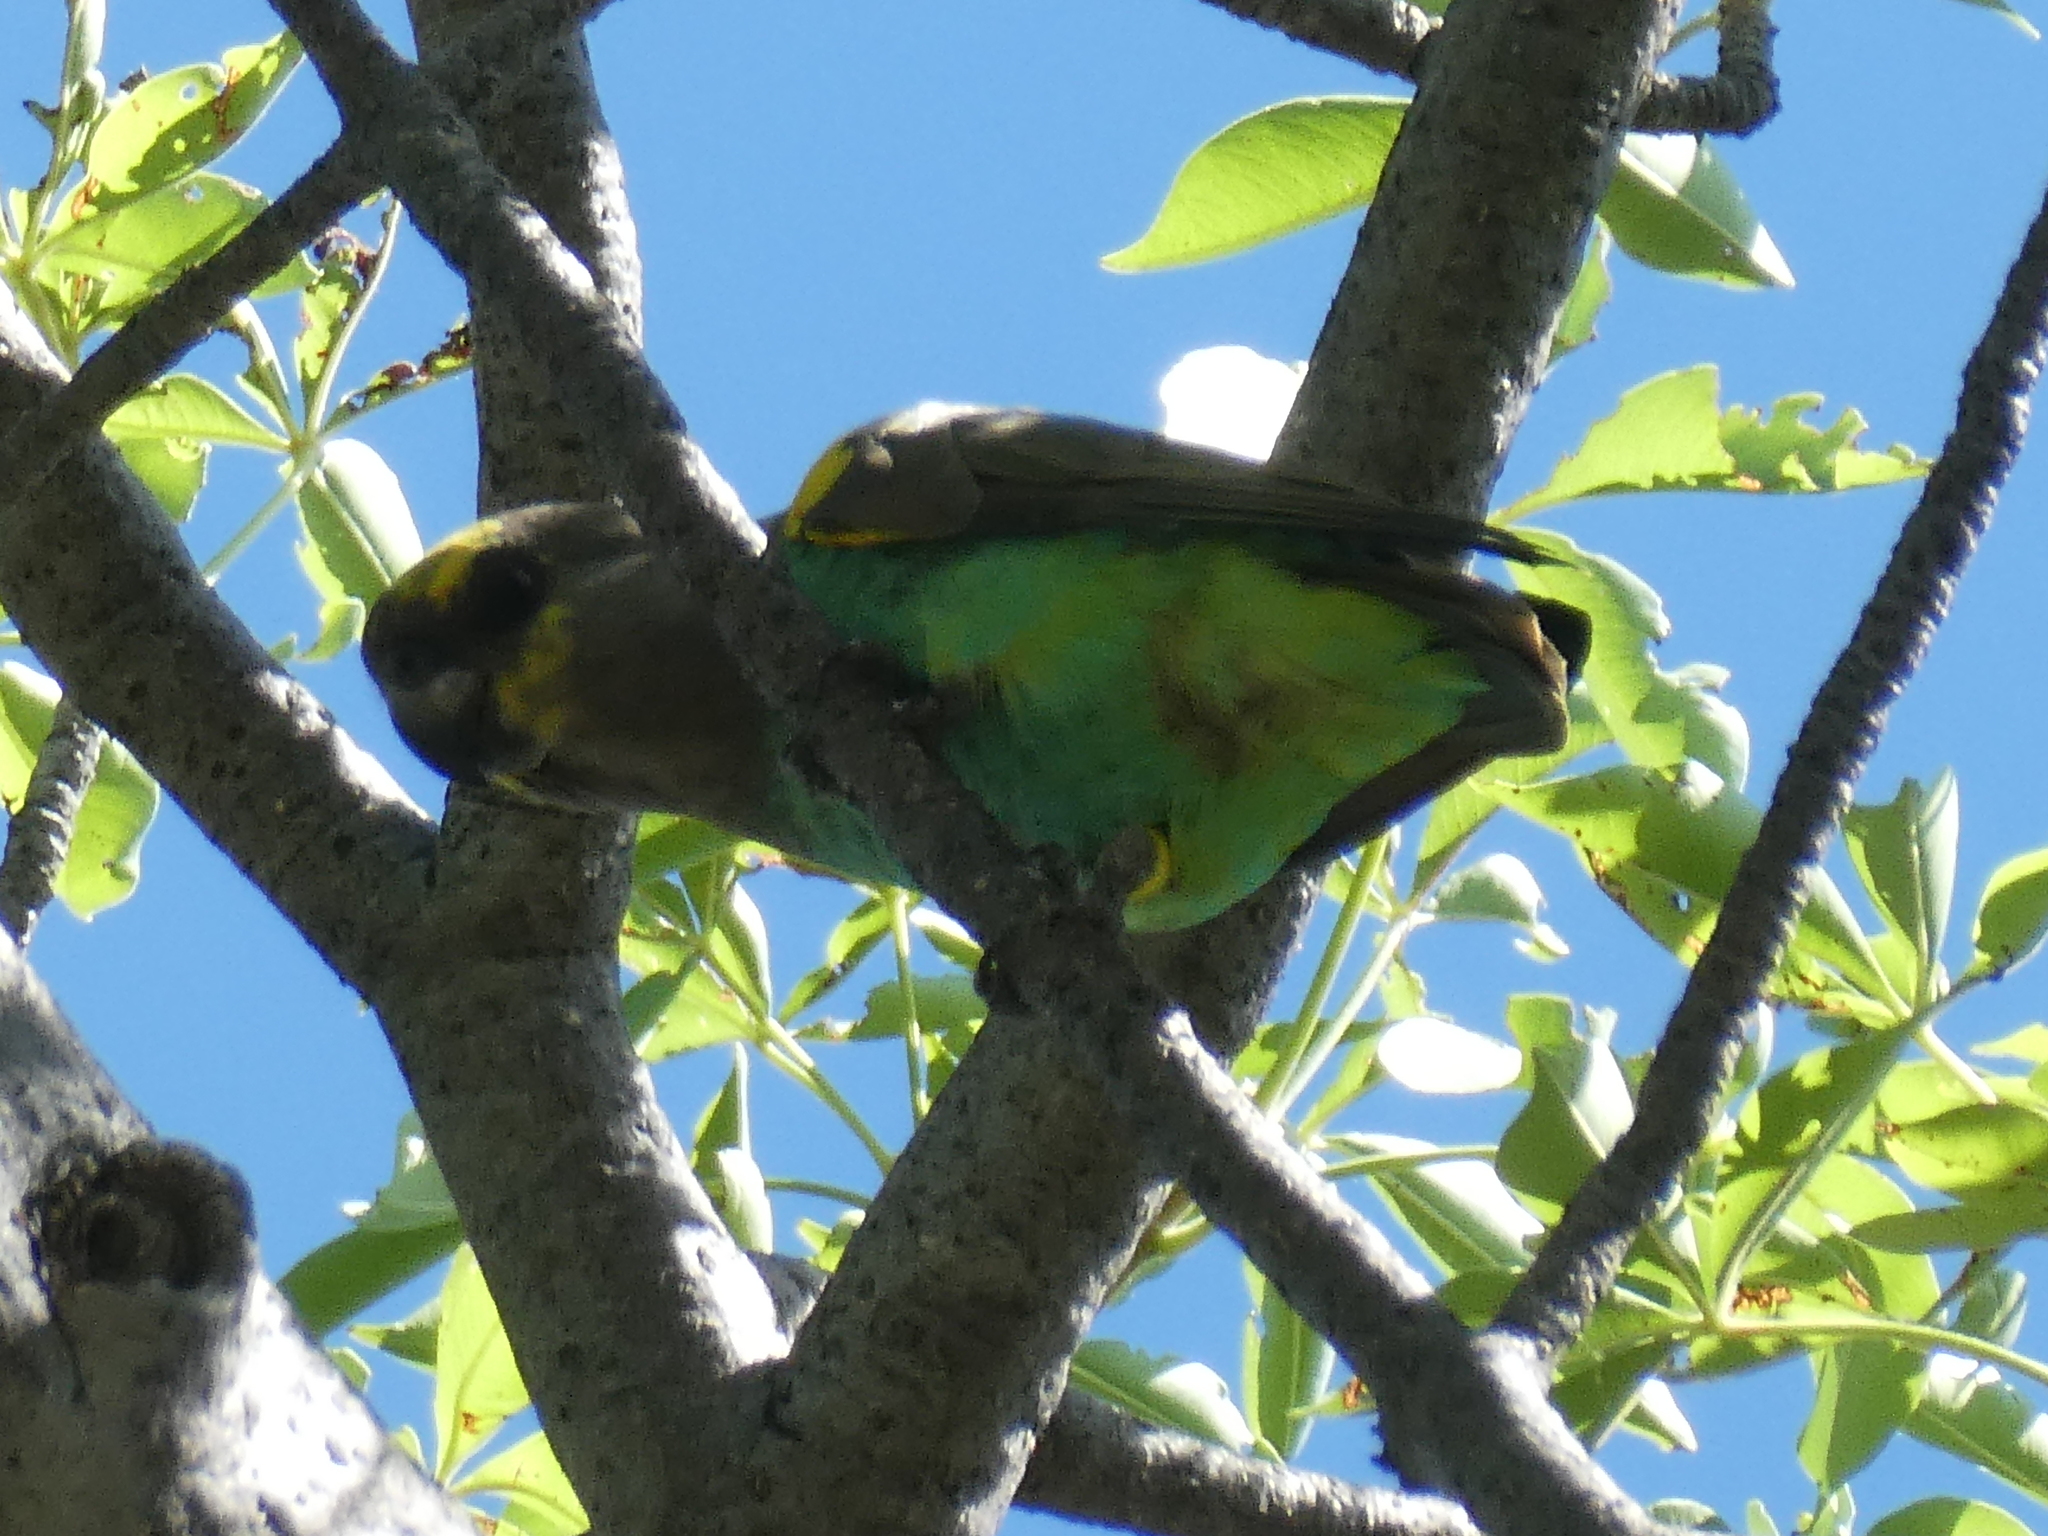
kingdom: Animalia
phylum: Chordata
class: Aves
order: Psittaciformes
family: Psittacidae
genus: Poicephalus
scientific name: Poicephalus meyeri
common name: Meyer's parrot
